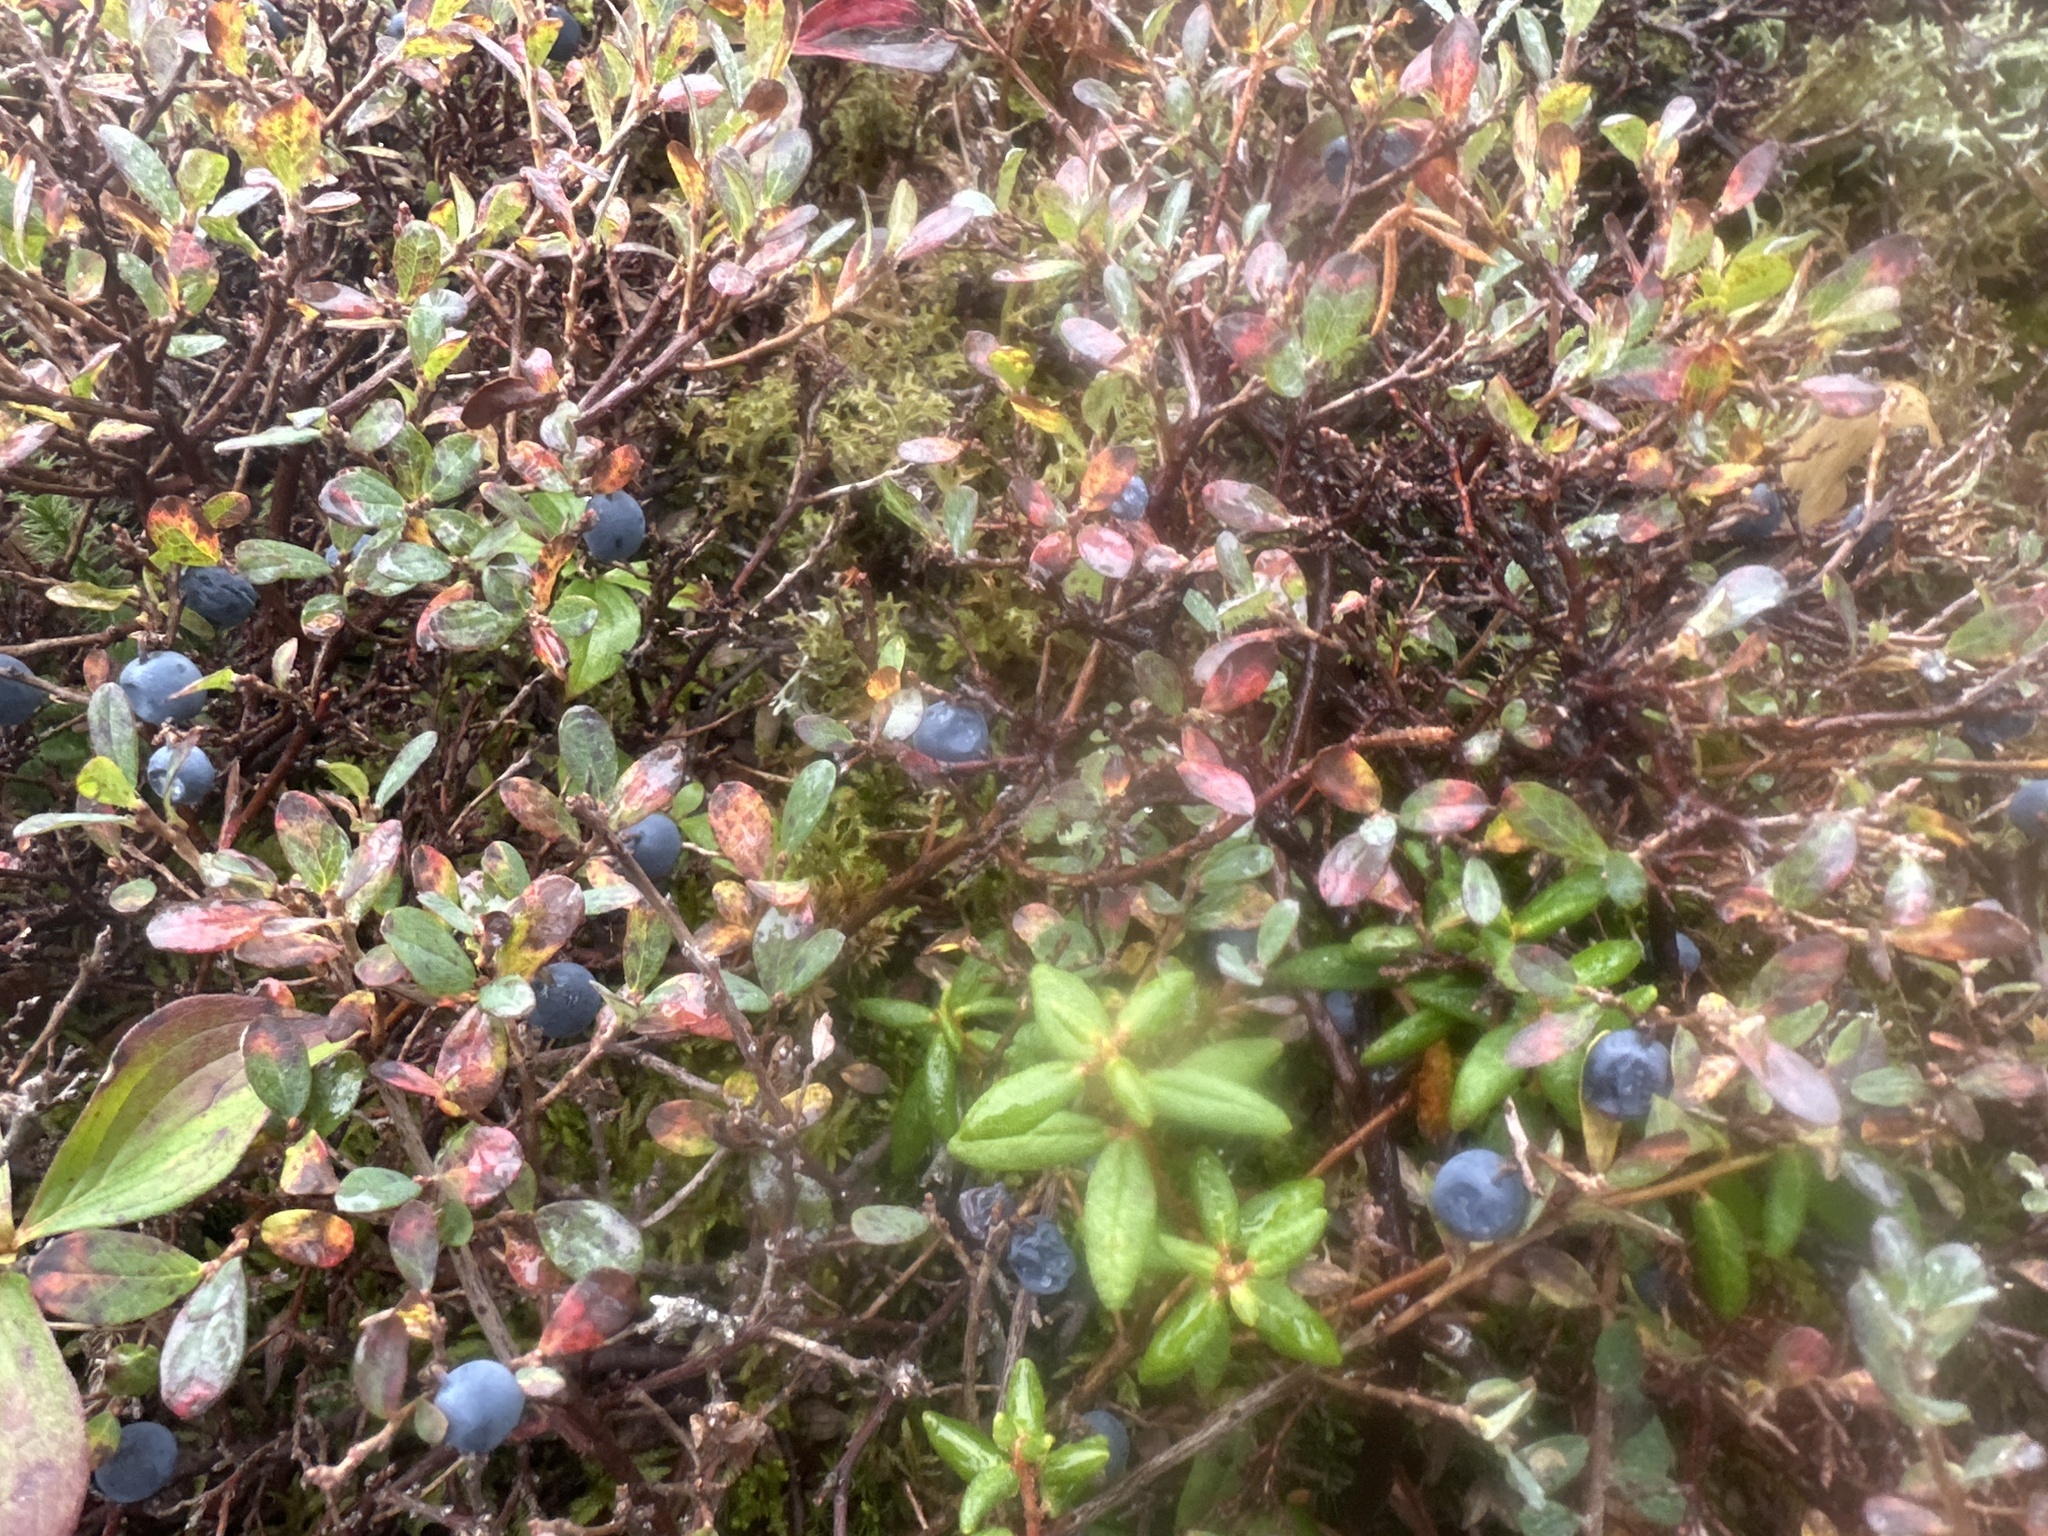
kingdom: Plantae
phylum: Tracheophyta
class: Magnoliopsida
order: Ericales
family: Ericaceae
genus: Vaccinium
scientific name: Vaccinium uliginosum
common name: Bog bilberry
